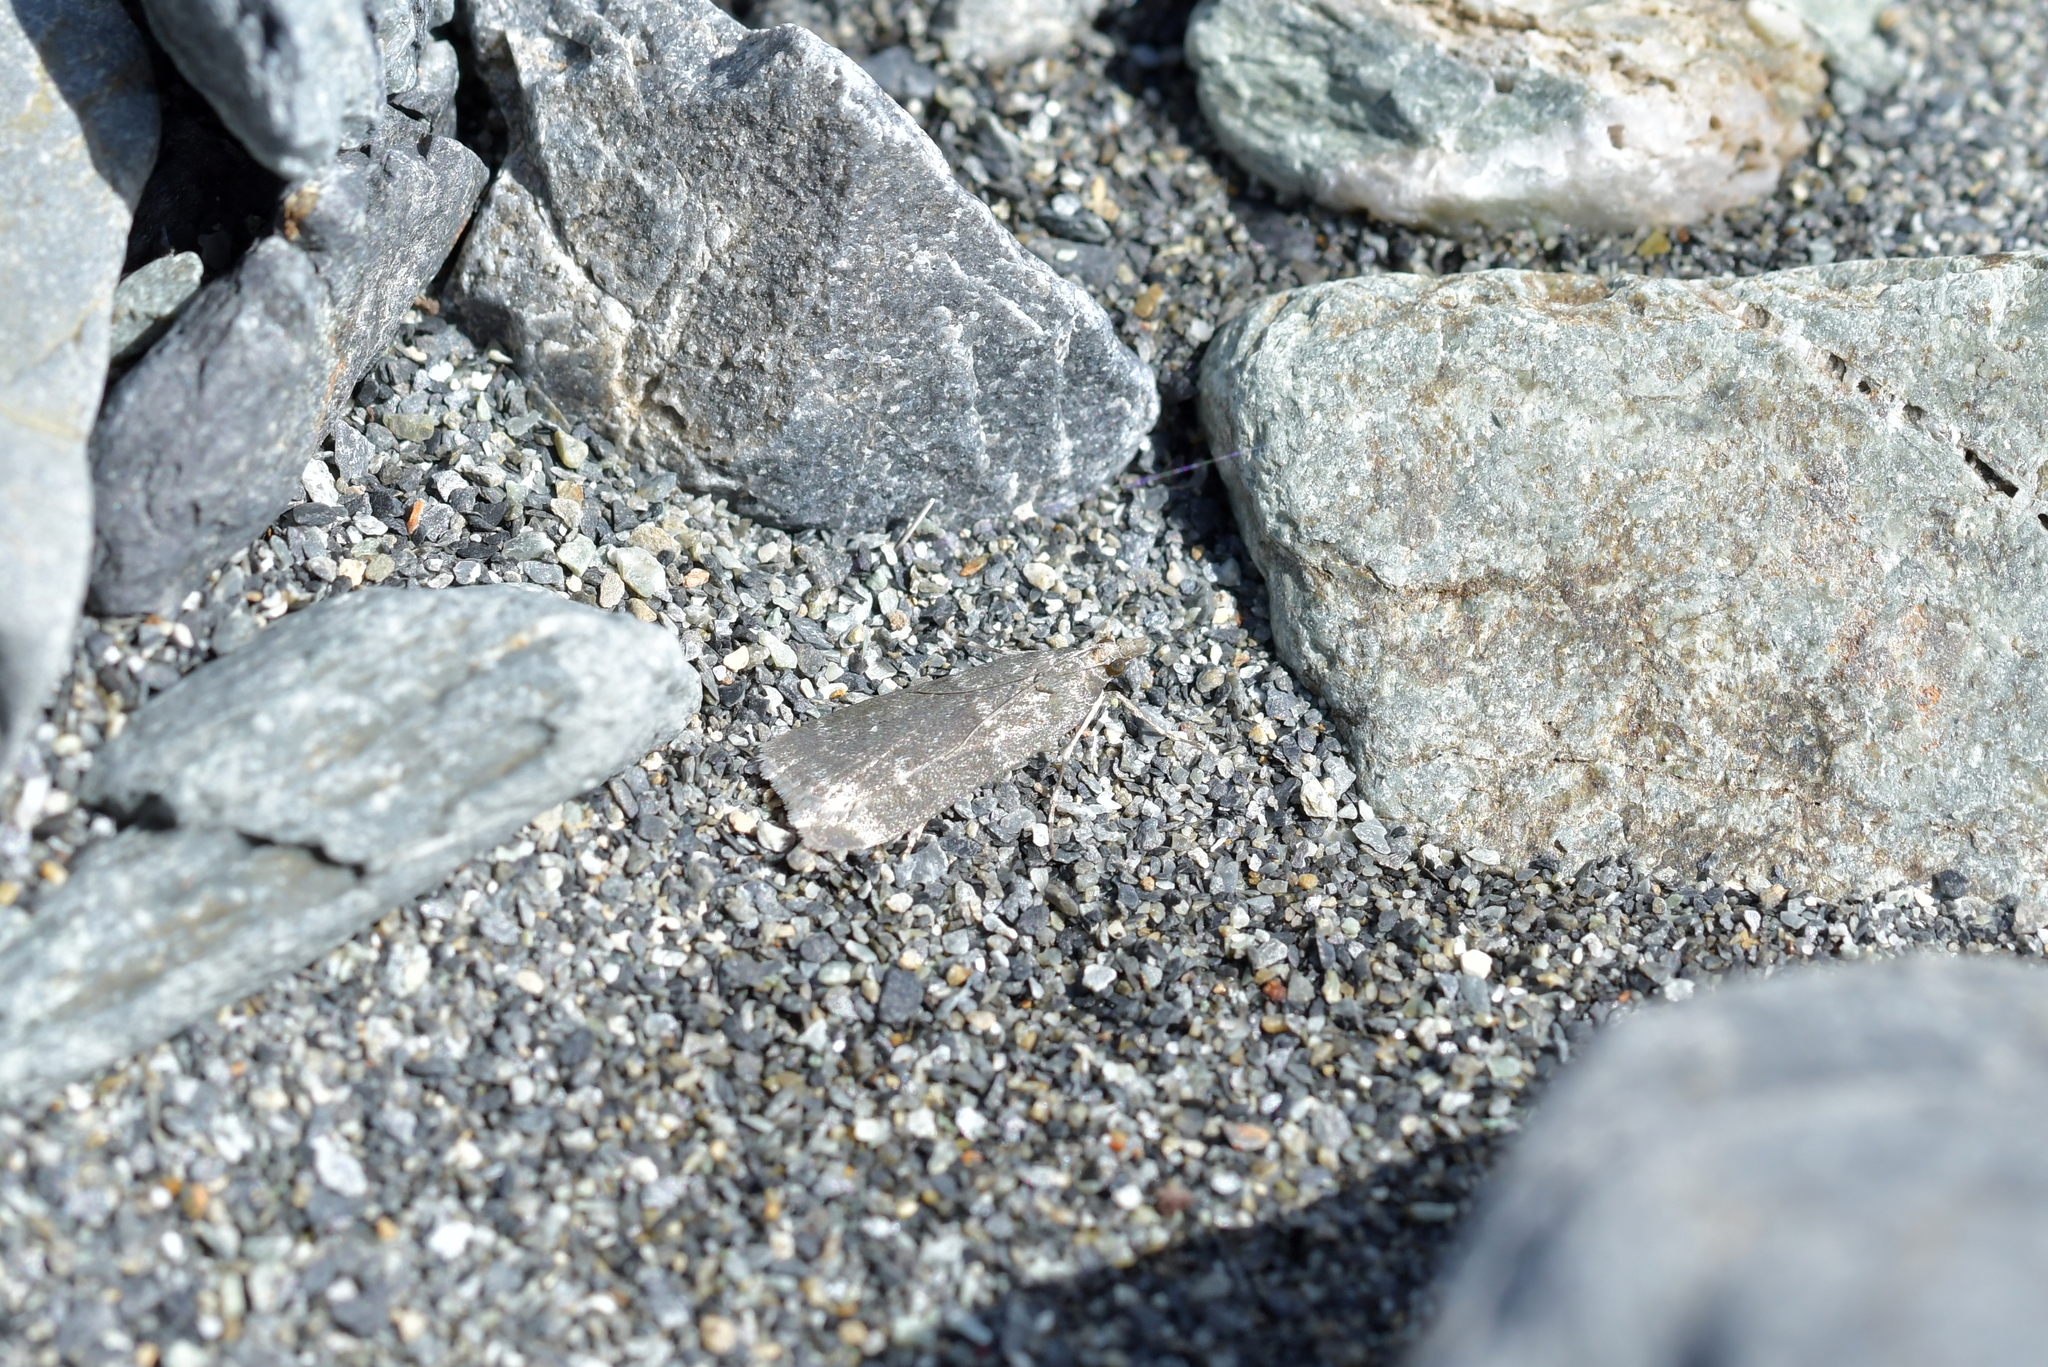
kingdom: Animalia
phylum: Arthropoda
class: Insecta
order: Lepidoptera
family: Crambidae
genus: Eudonia
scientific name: Eudonia cataxesta
